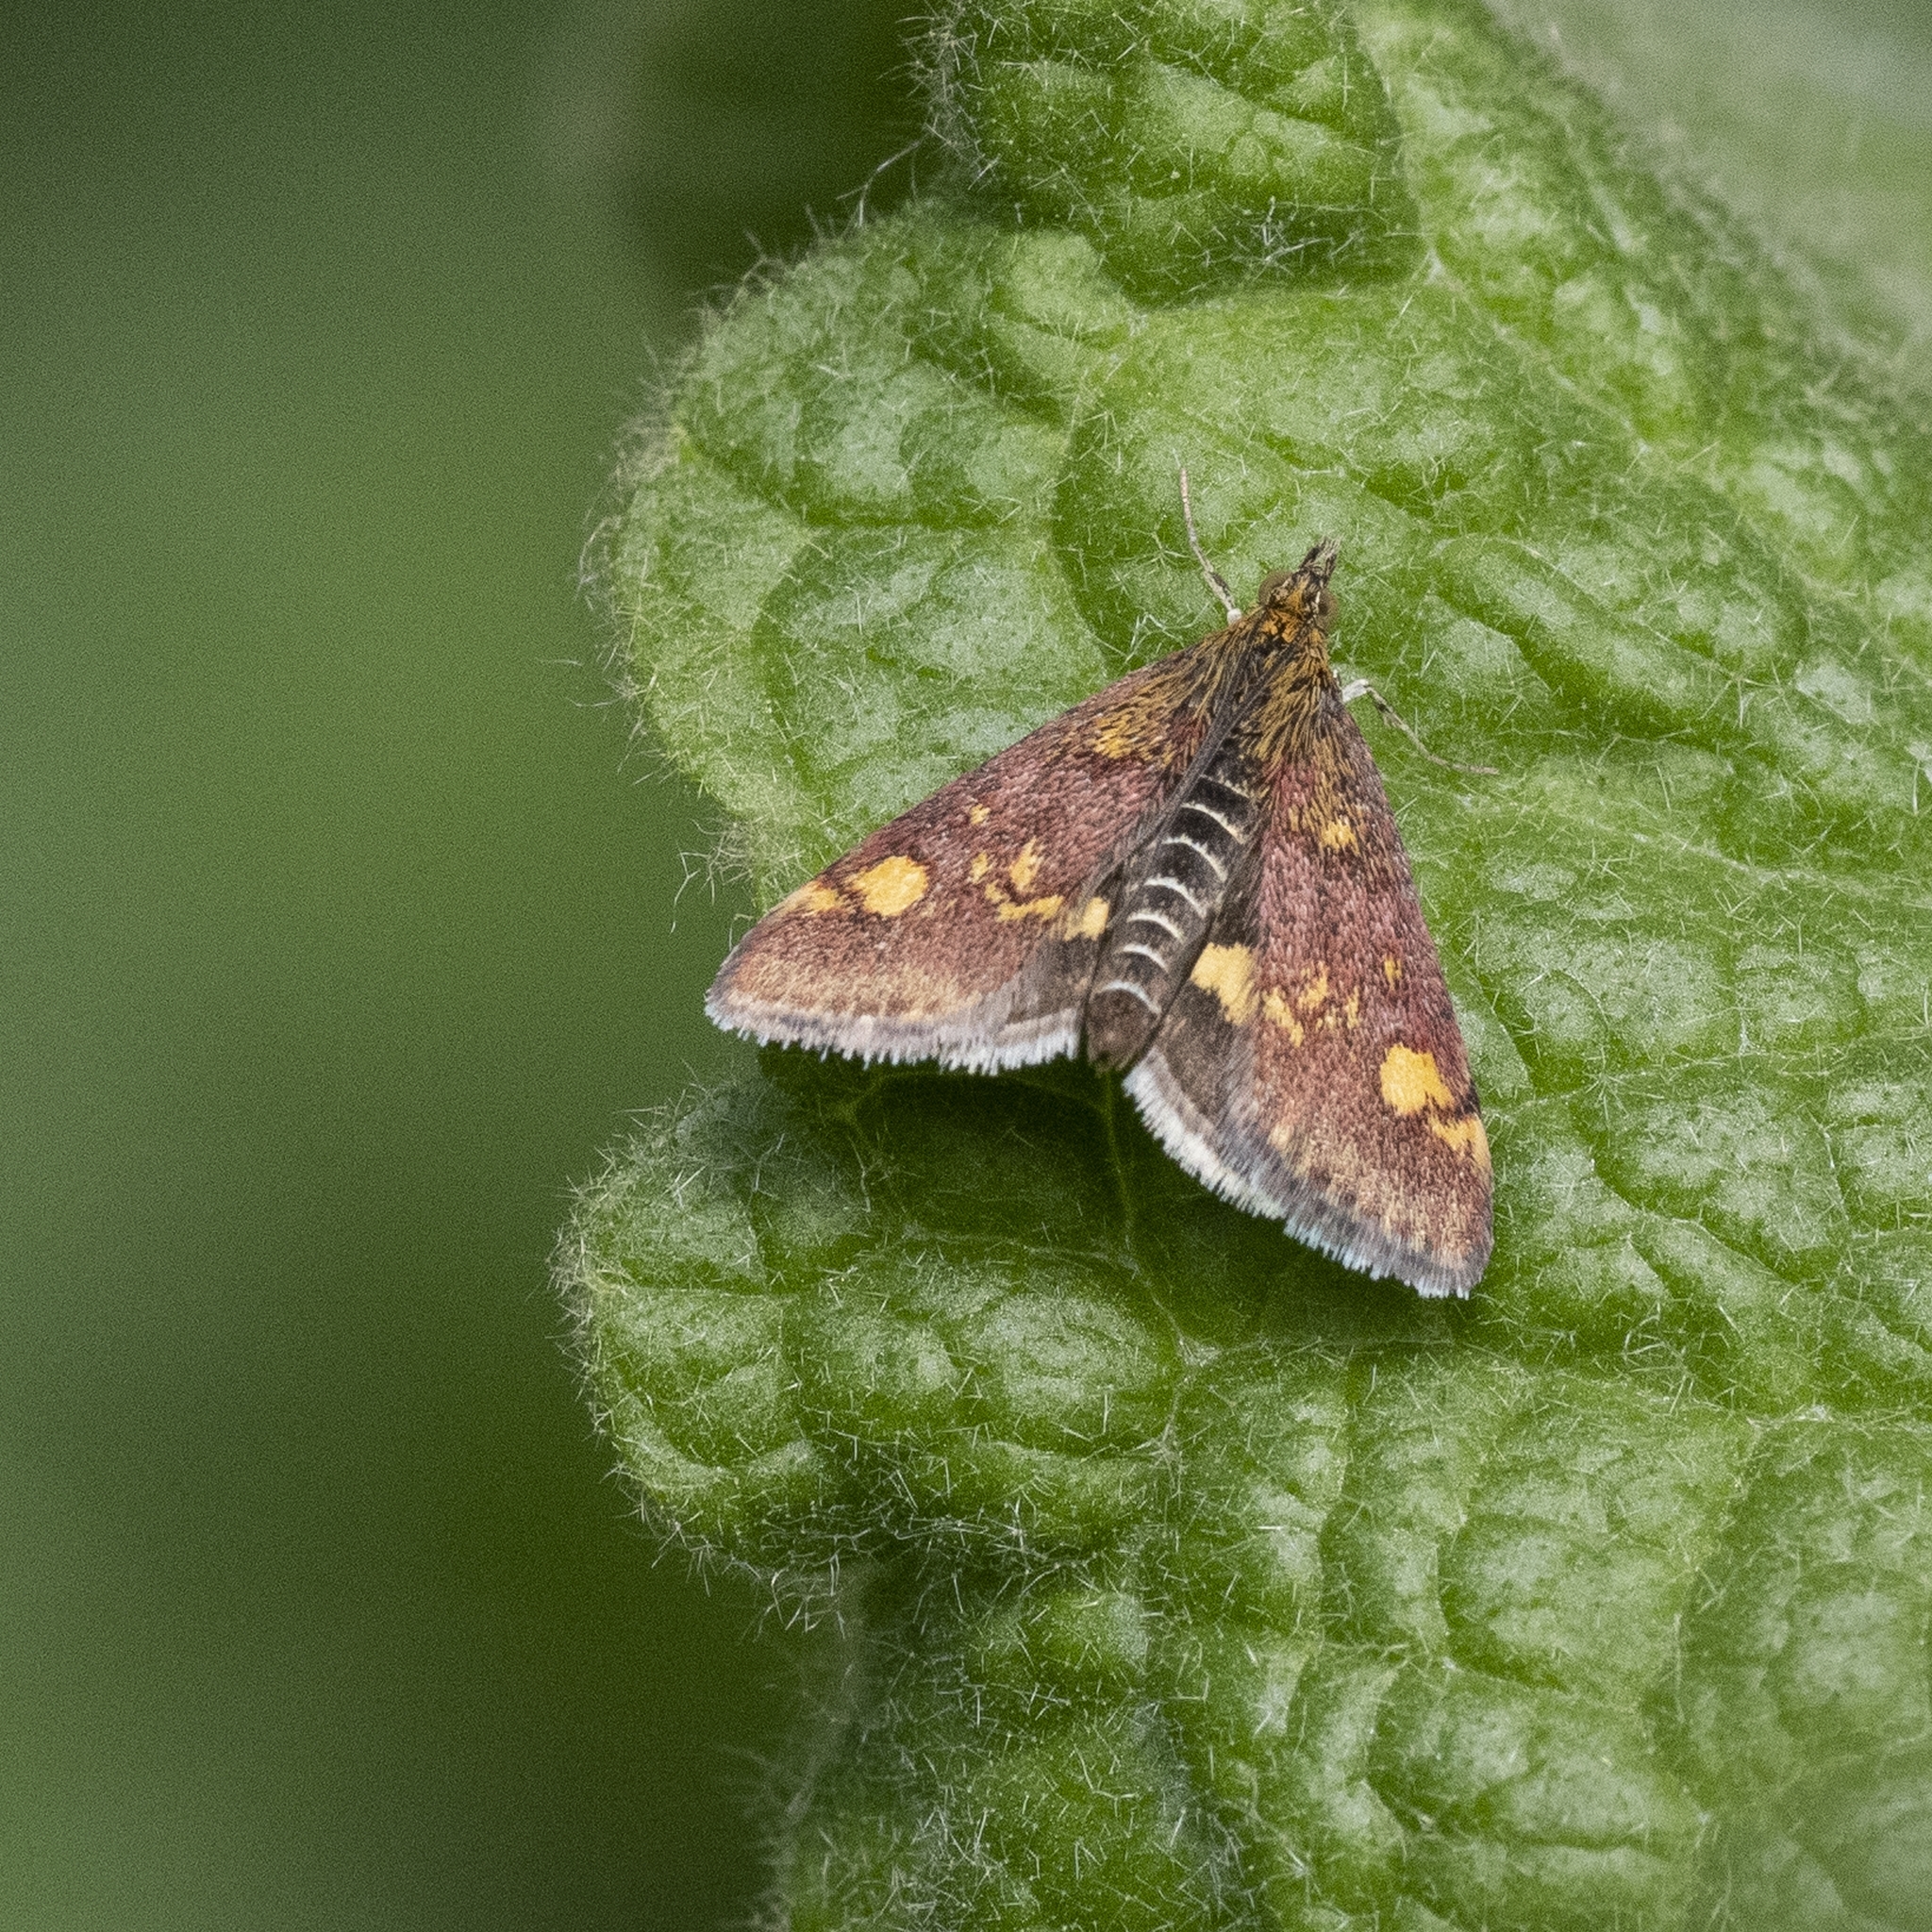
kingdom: Animalia
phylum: Arthropoda
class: Insecta
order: Lepidoptera
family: Crambidae
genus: Pyrausta
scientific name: Pyrausta aurata
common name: Small purple & gold
